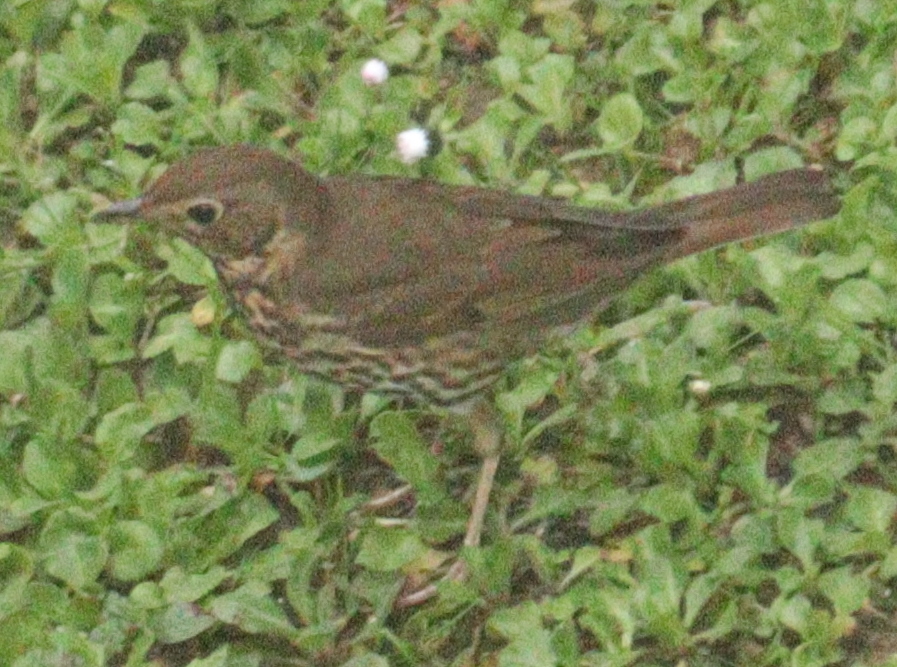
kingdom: Animalia
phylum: Chordata
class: Aves
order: Passeriformes
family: Turdidae
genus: Turdus
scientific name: Turdus philomelos
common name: Song thrush
